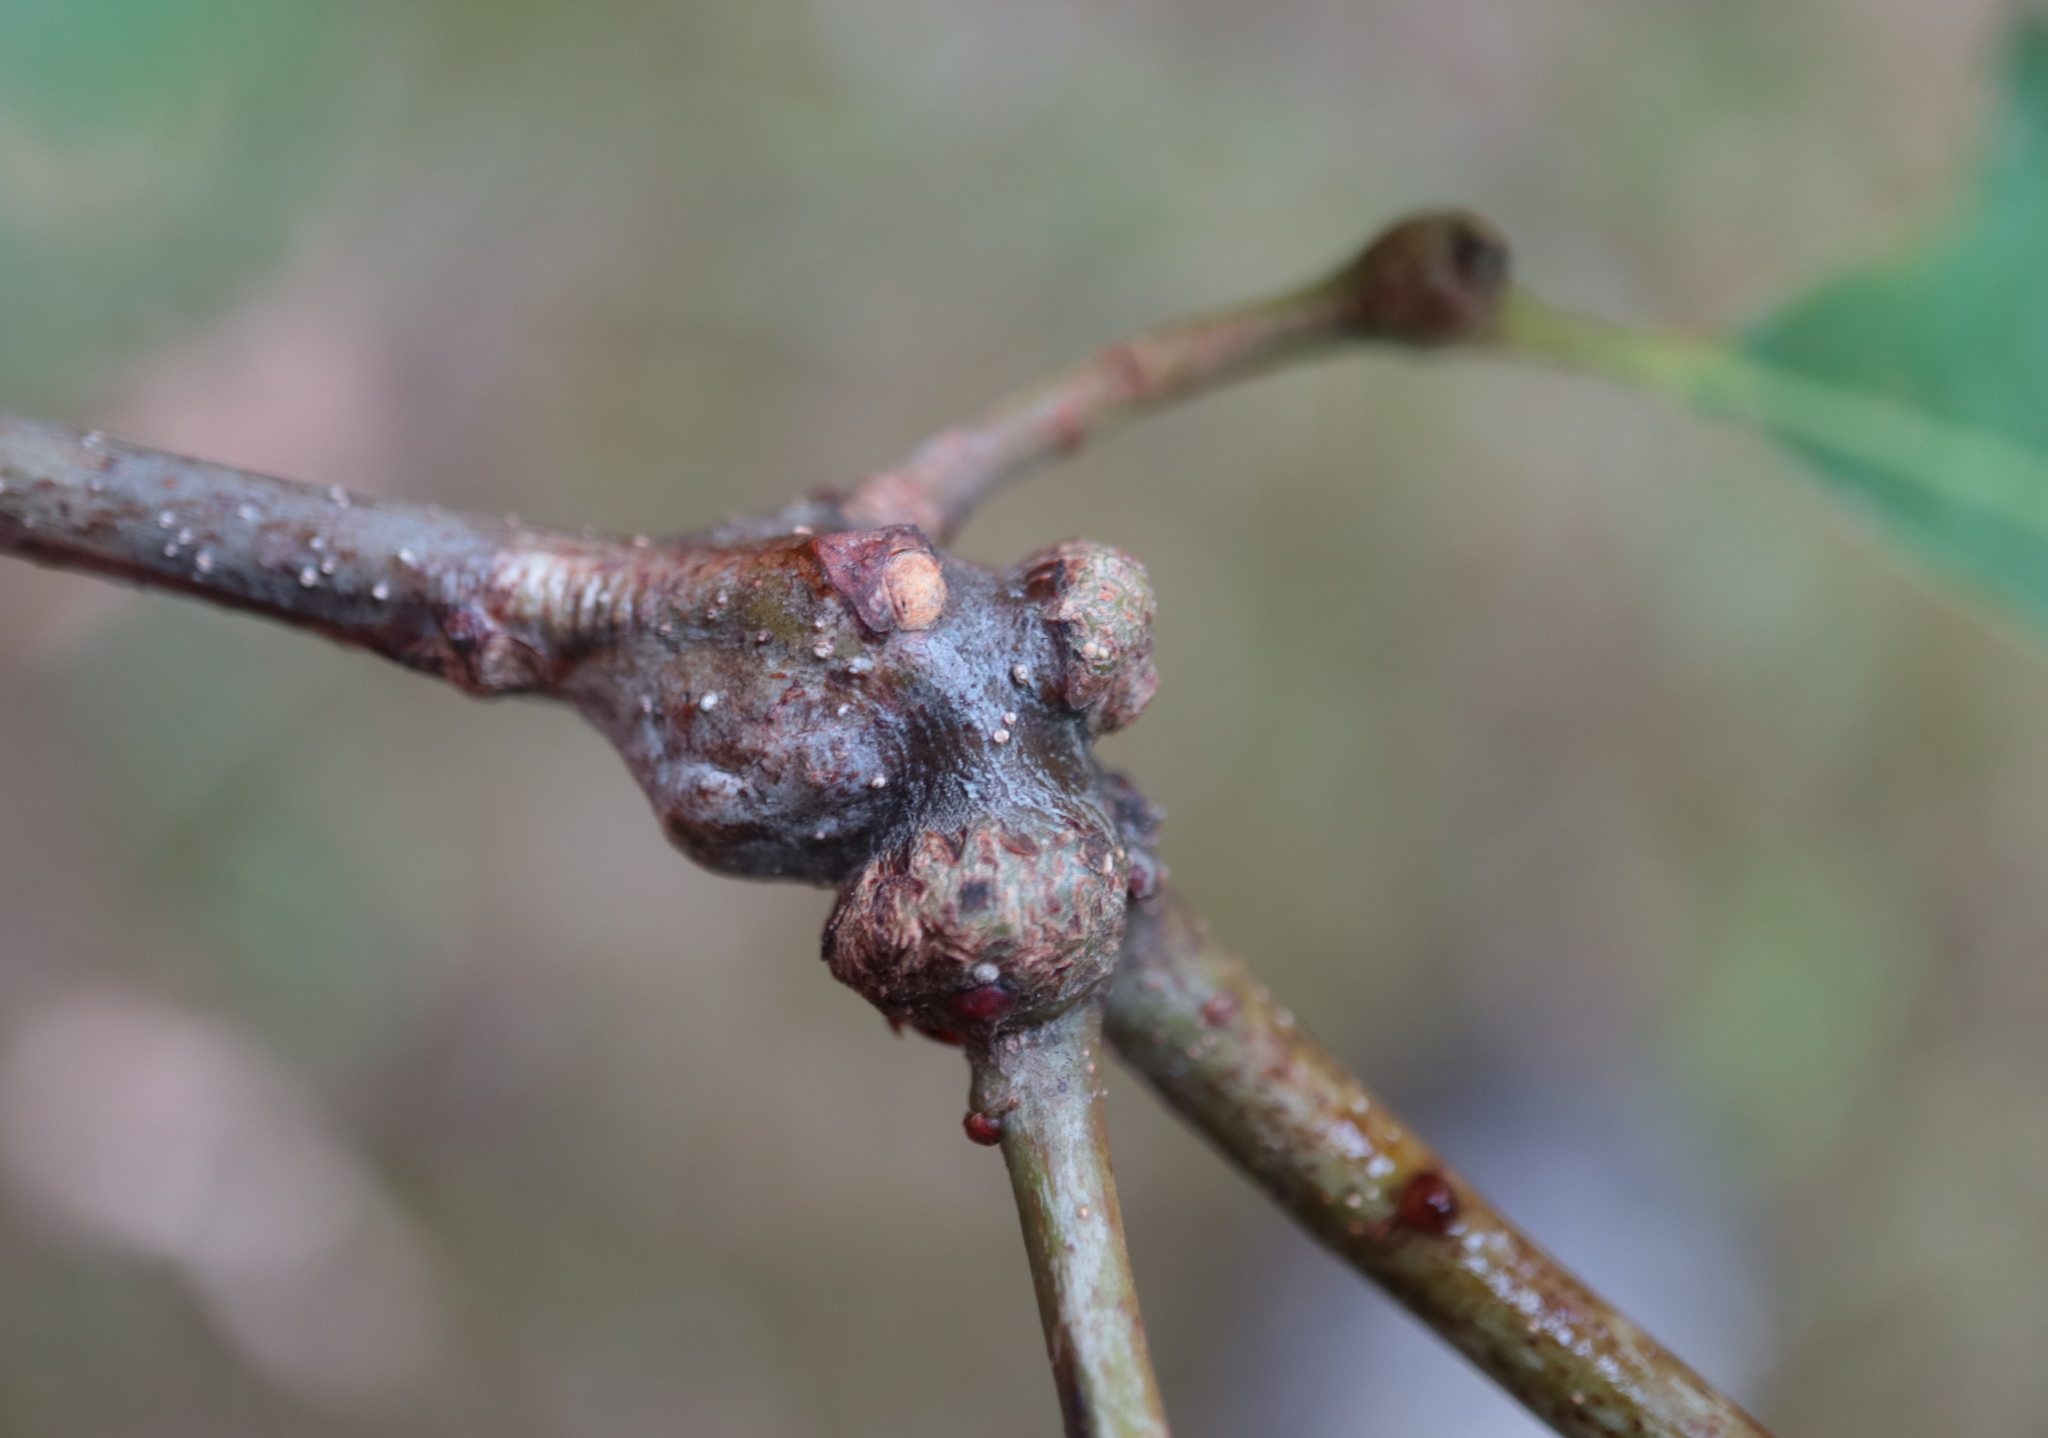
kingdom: Animalia
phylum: Arthropoda
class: Insecta
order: Hymenoptera
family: Cynipidae
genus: Loxaulus
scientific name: Loxaulus
